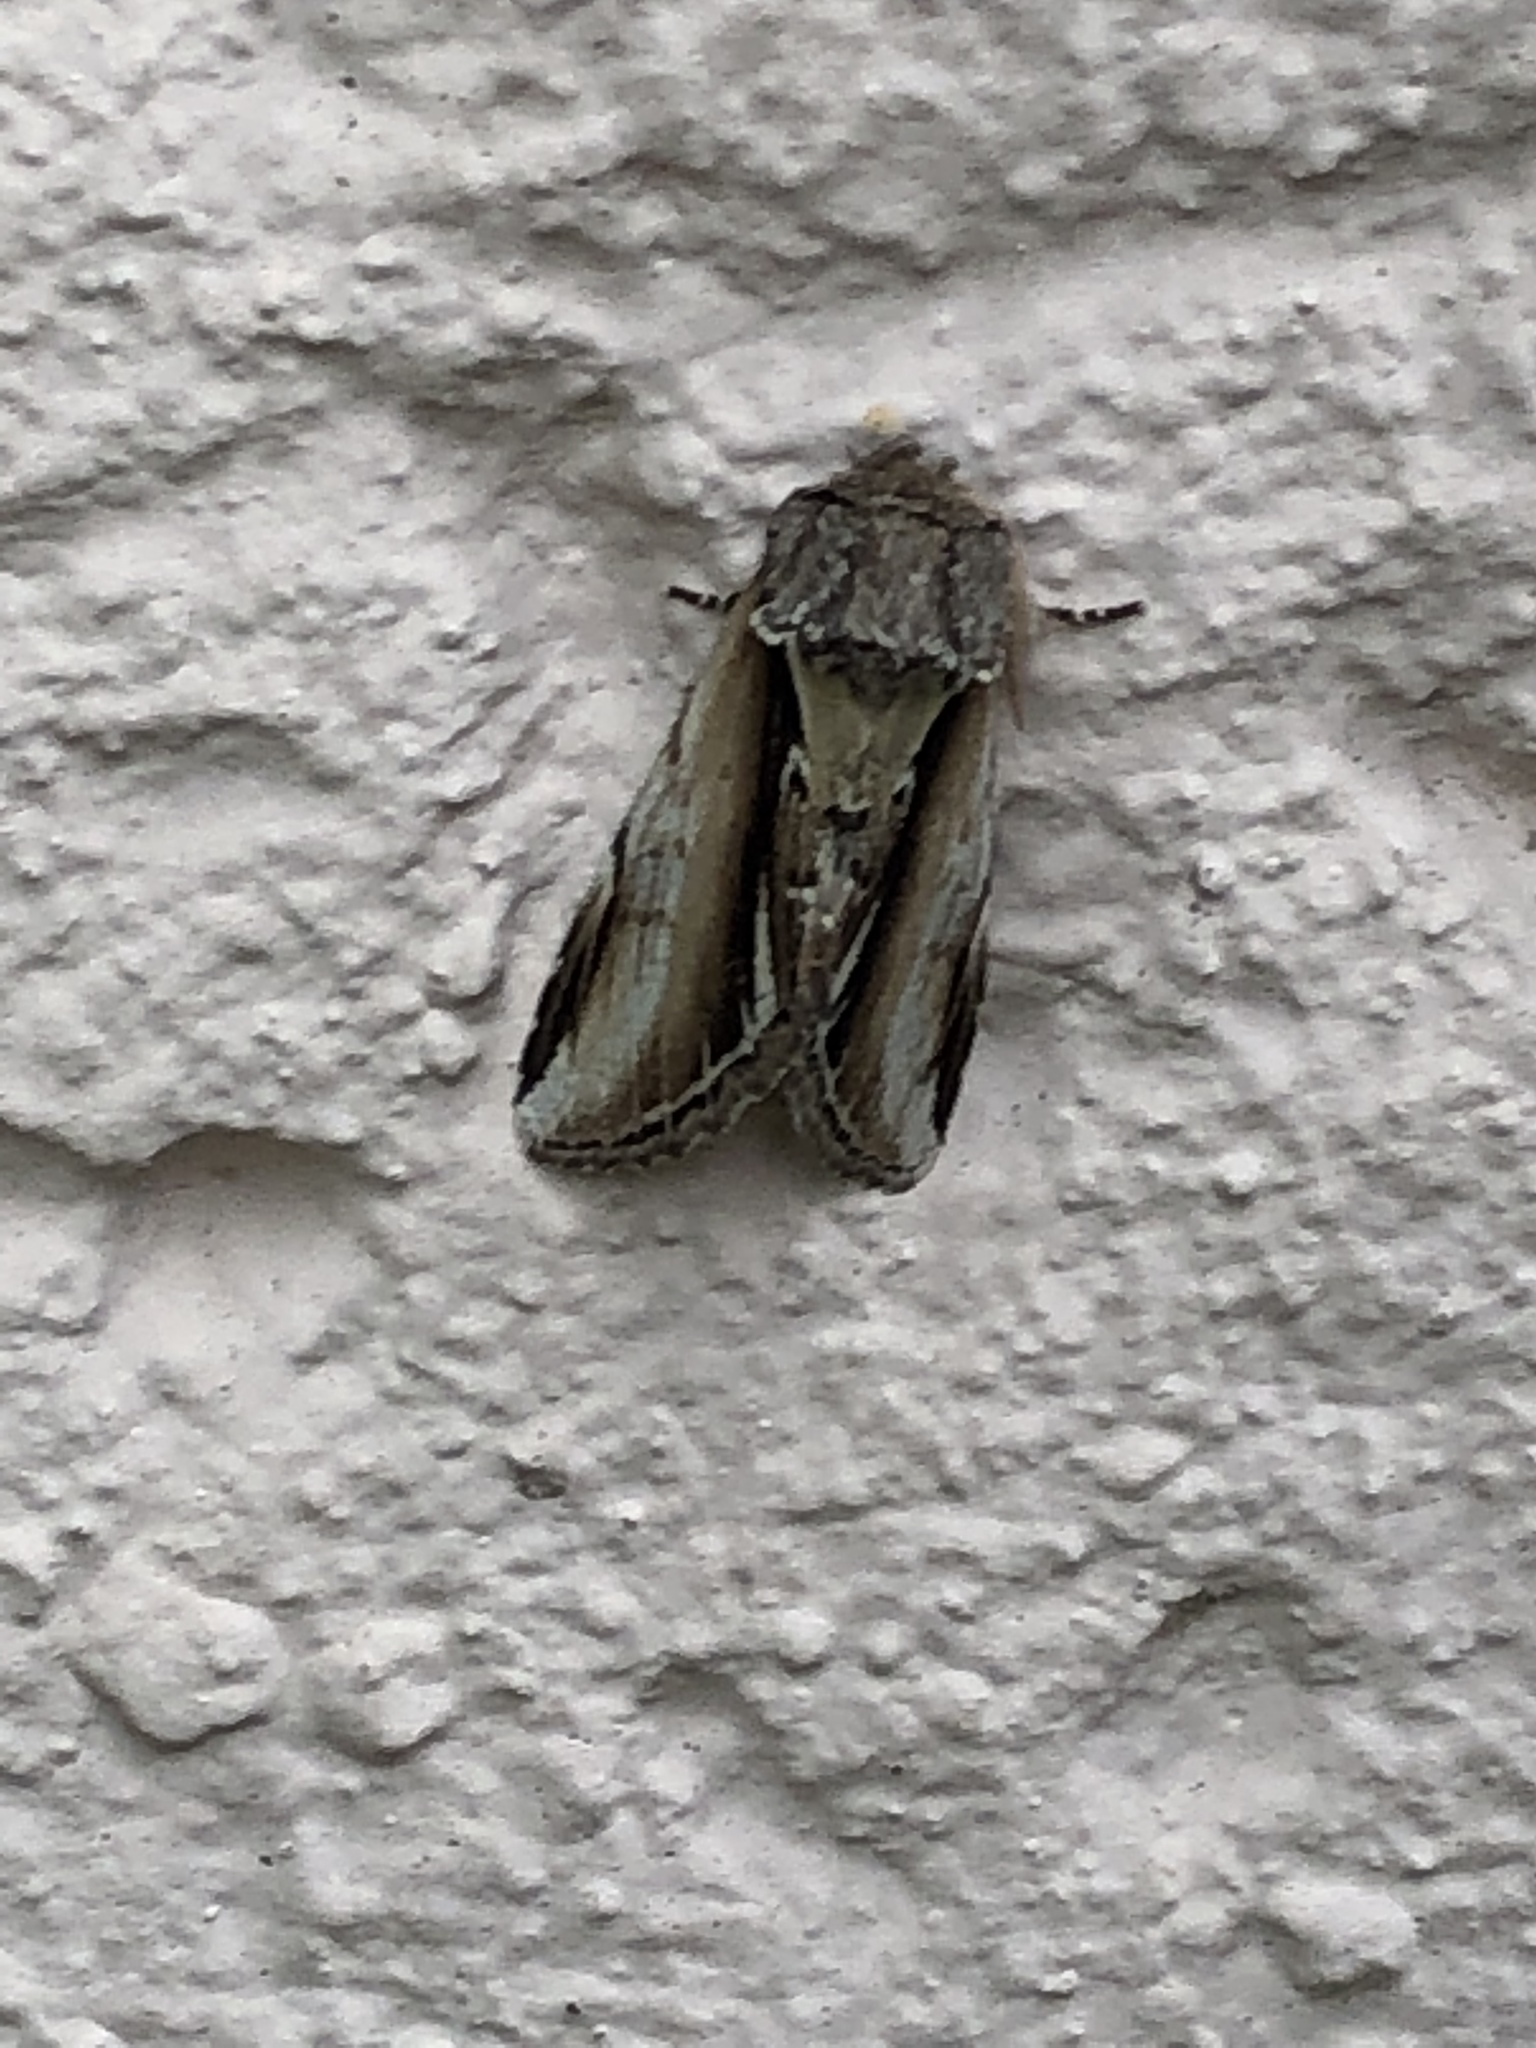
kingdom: Animalia
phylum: Arthropoda
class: Insecta
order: Lepidoptera
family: Notodontidae
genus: Pheosia
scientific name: Pheosia gnoma
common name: Lesser swallow prominent
